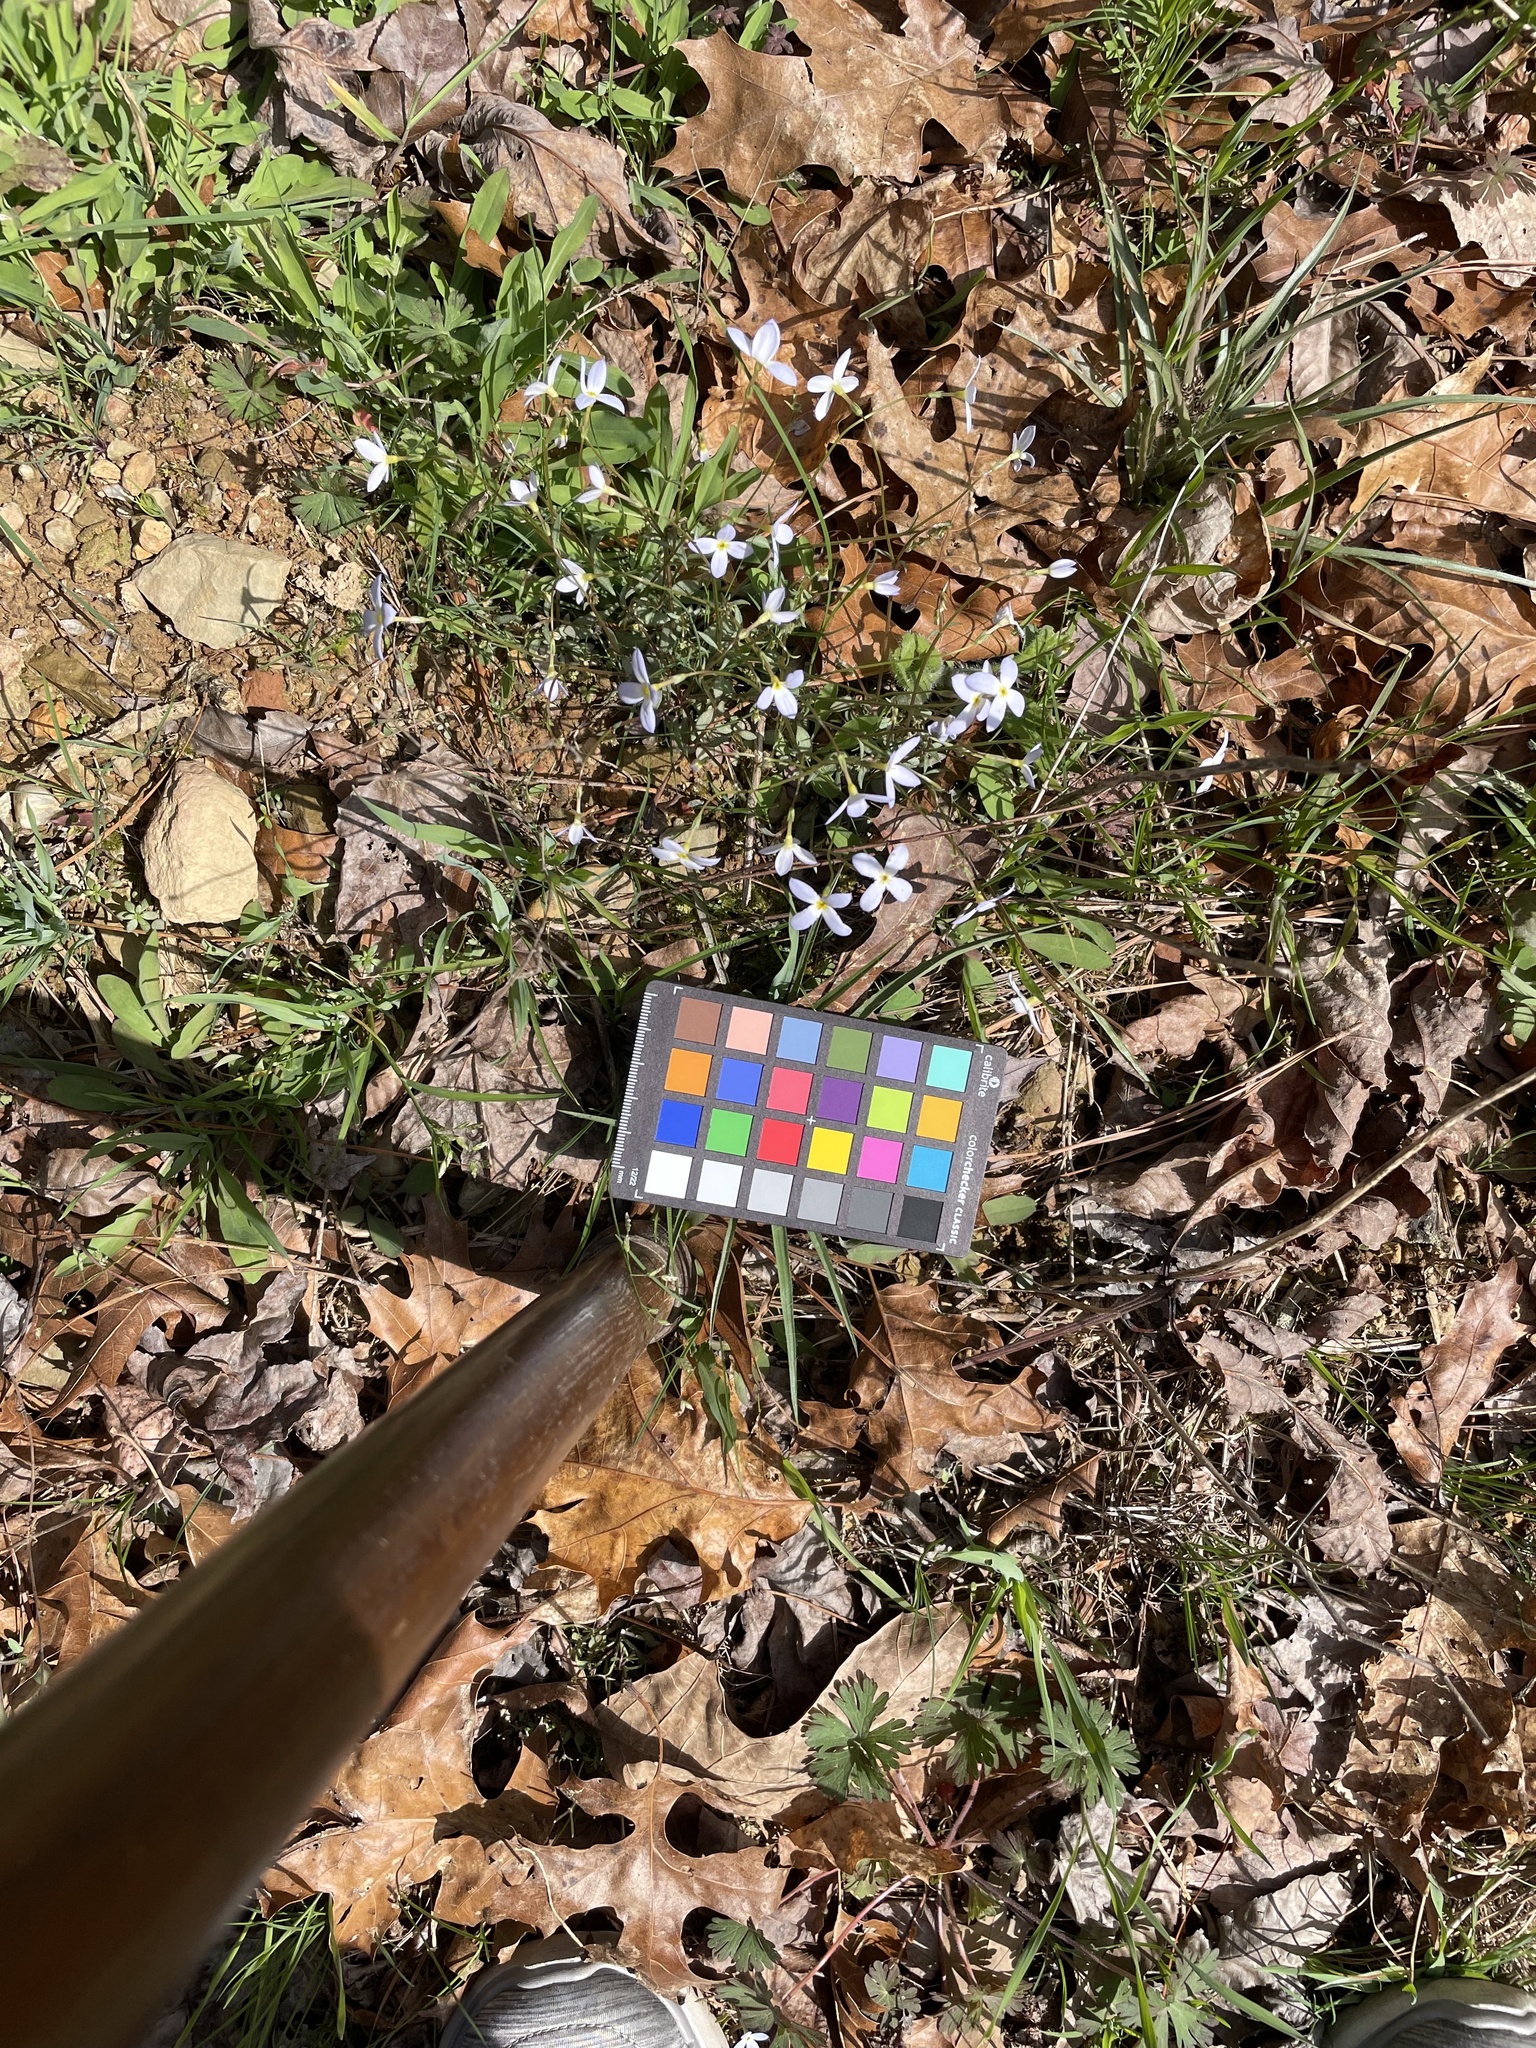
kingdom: Plantae
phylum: Tracheophyta
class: Magnoliopsida
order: Gentianales
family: Rubiaceae
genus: Houstonia
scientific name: Houstonia caerulea
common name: Bluets
